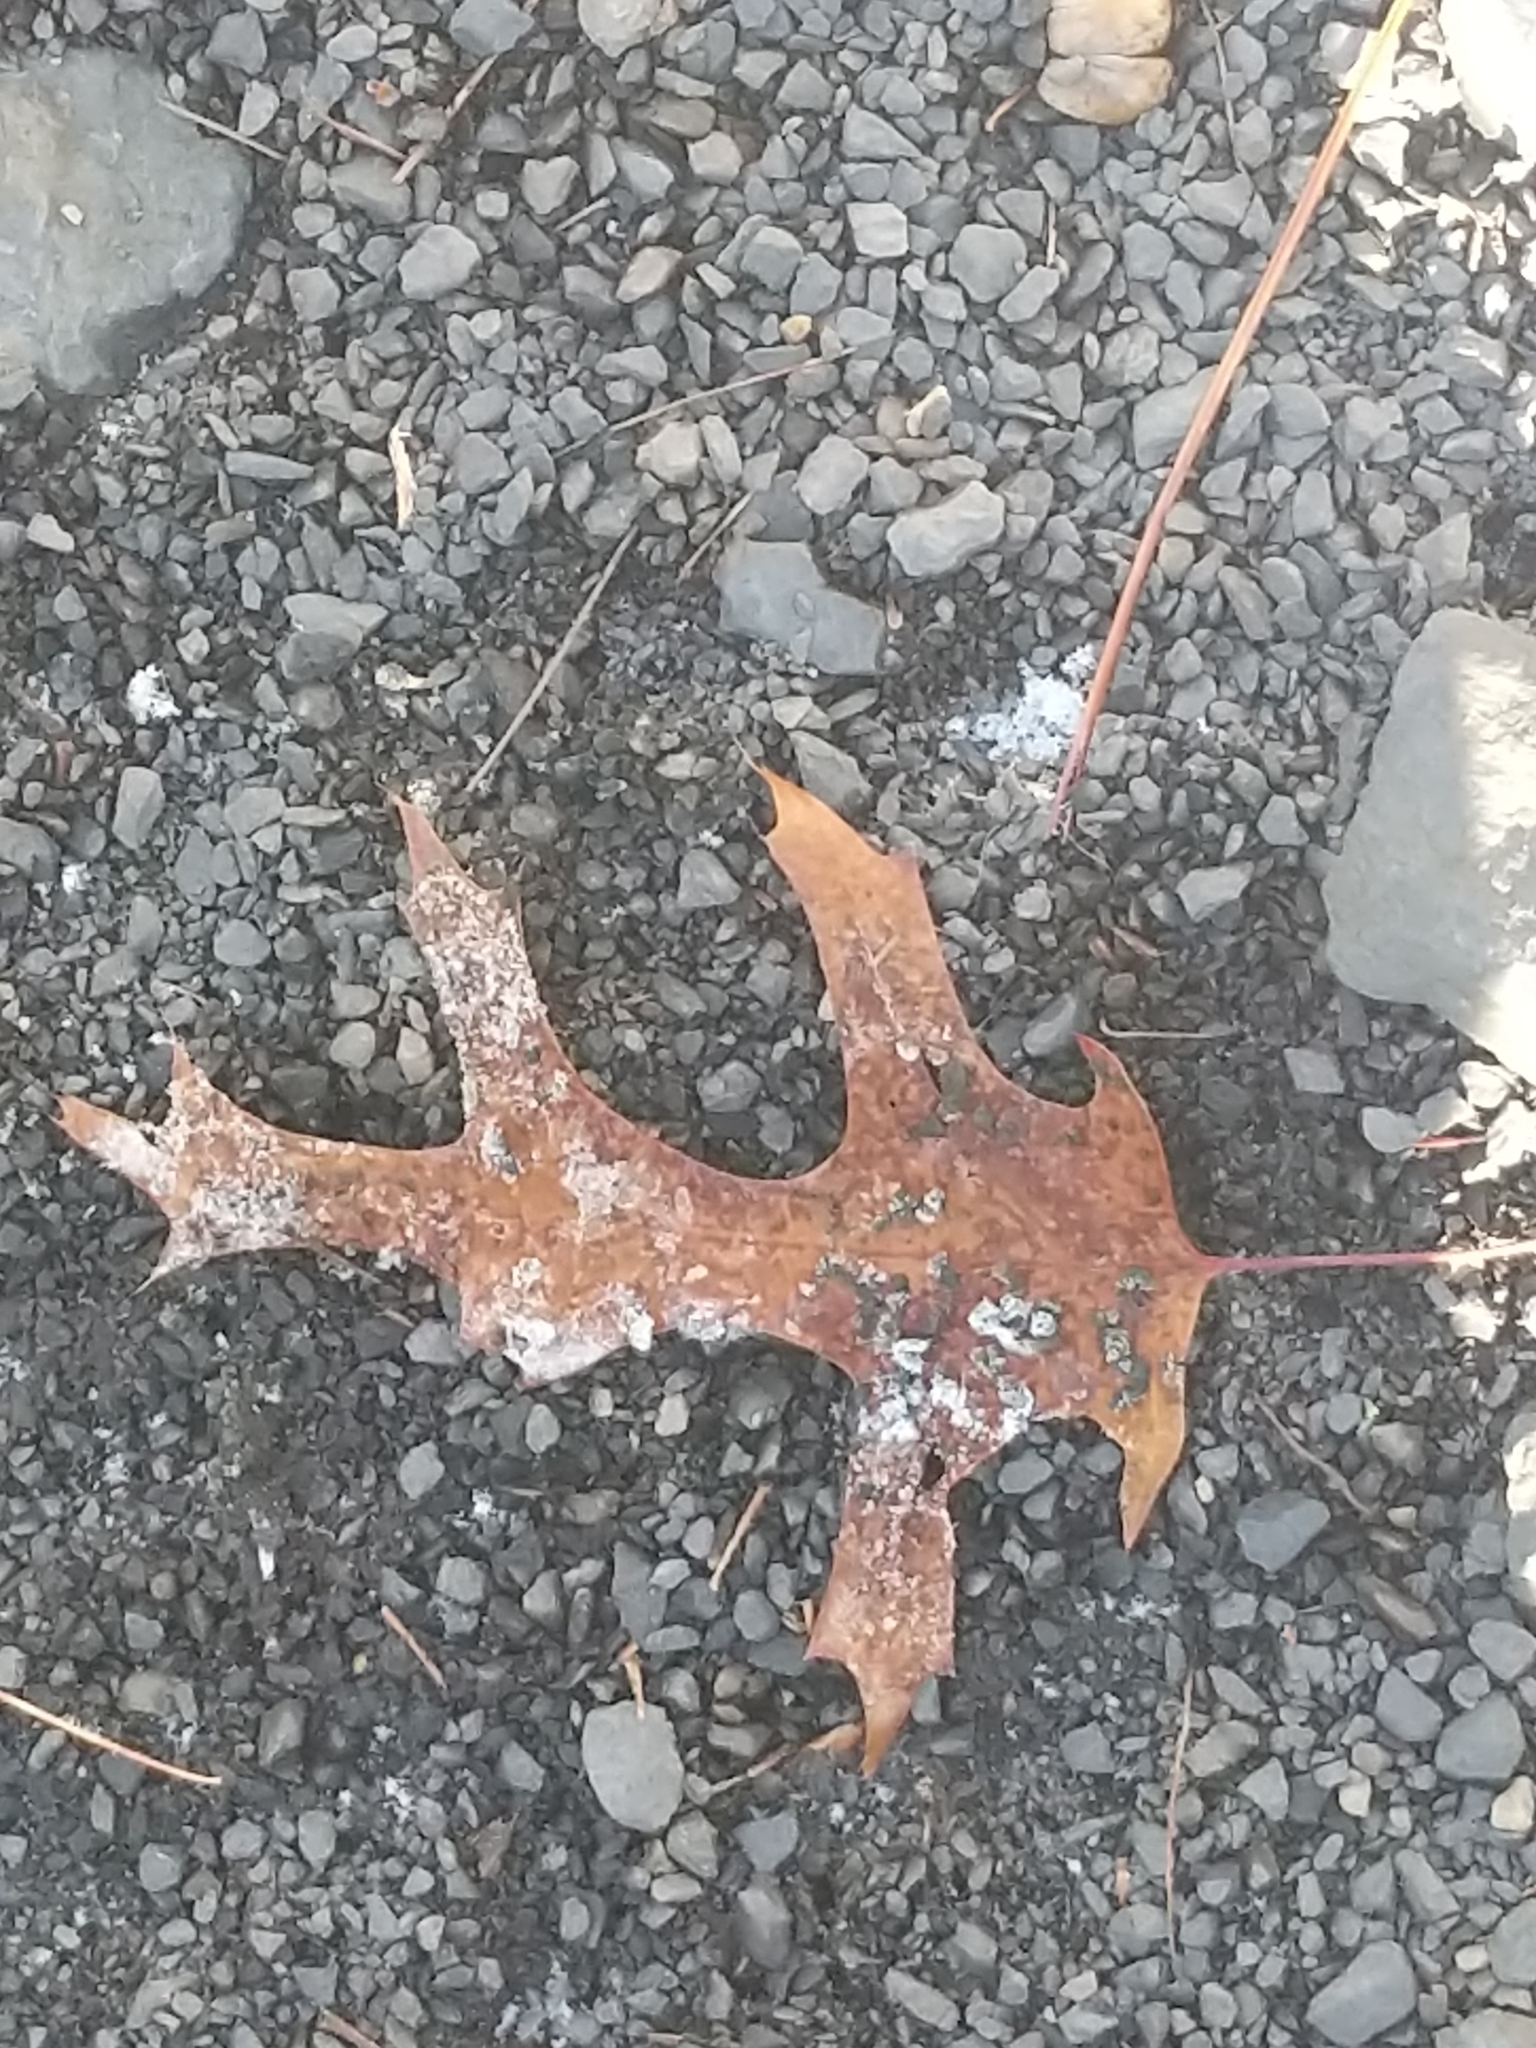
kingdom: Plantae
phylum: Tracheophyta
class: Magnoliopsida
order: Fagales
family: Fagaceae
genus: Quercus
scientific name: Quercus coccinea
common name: Scarlet oak
